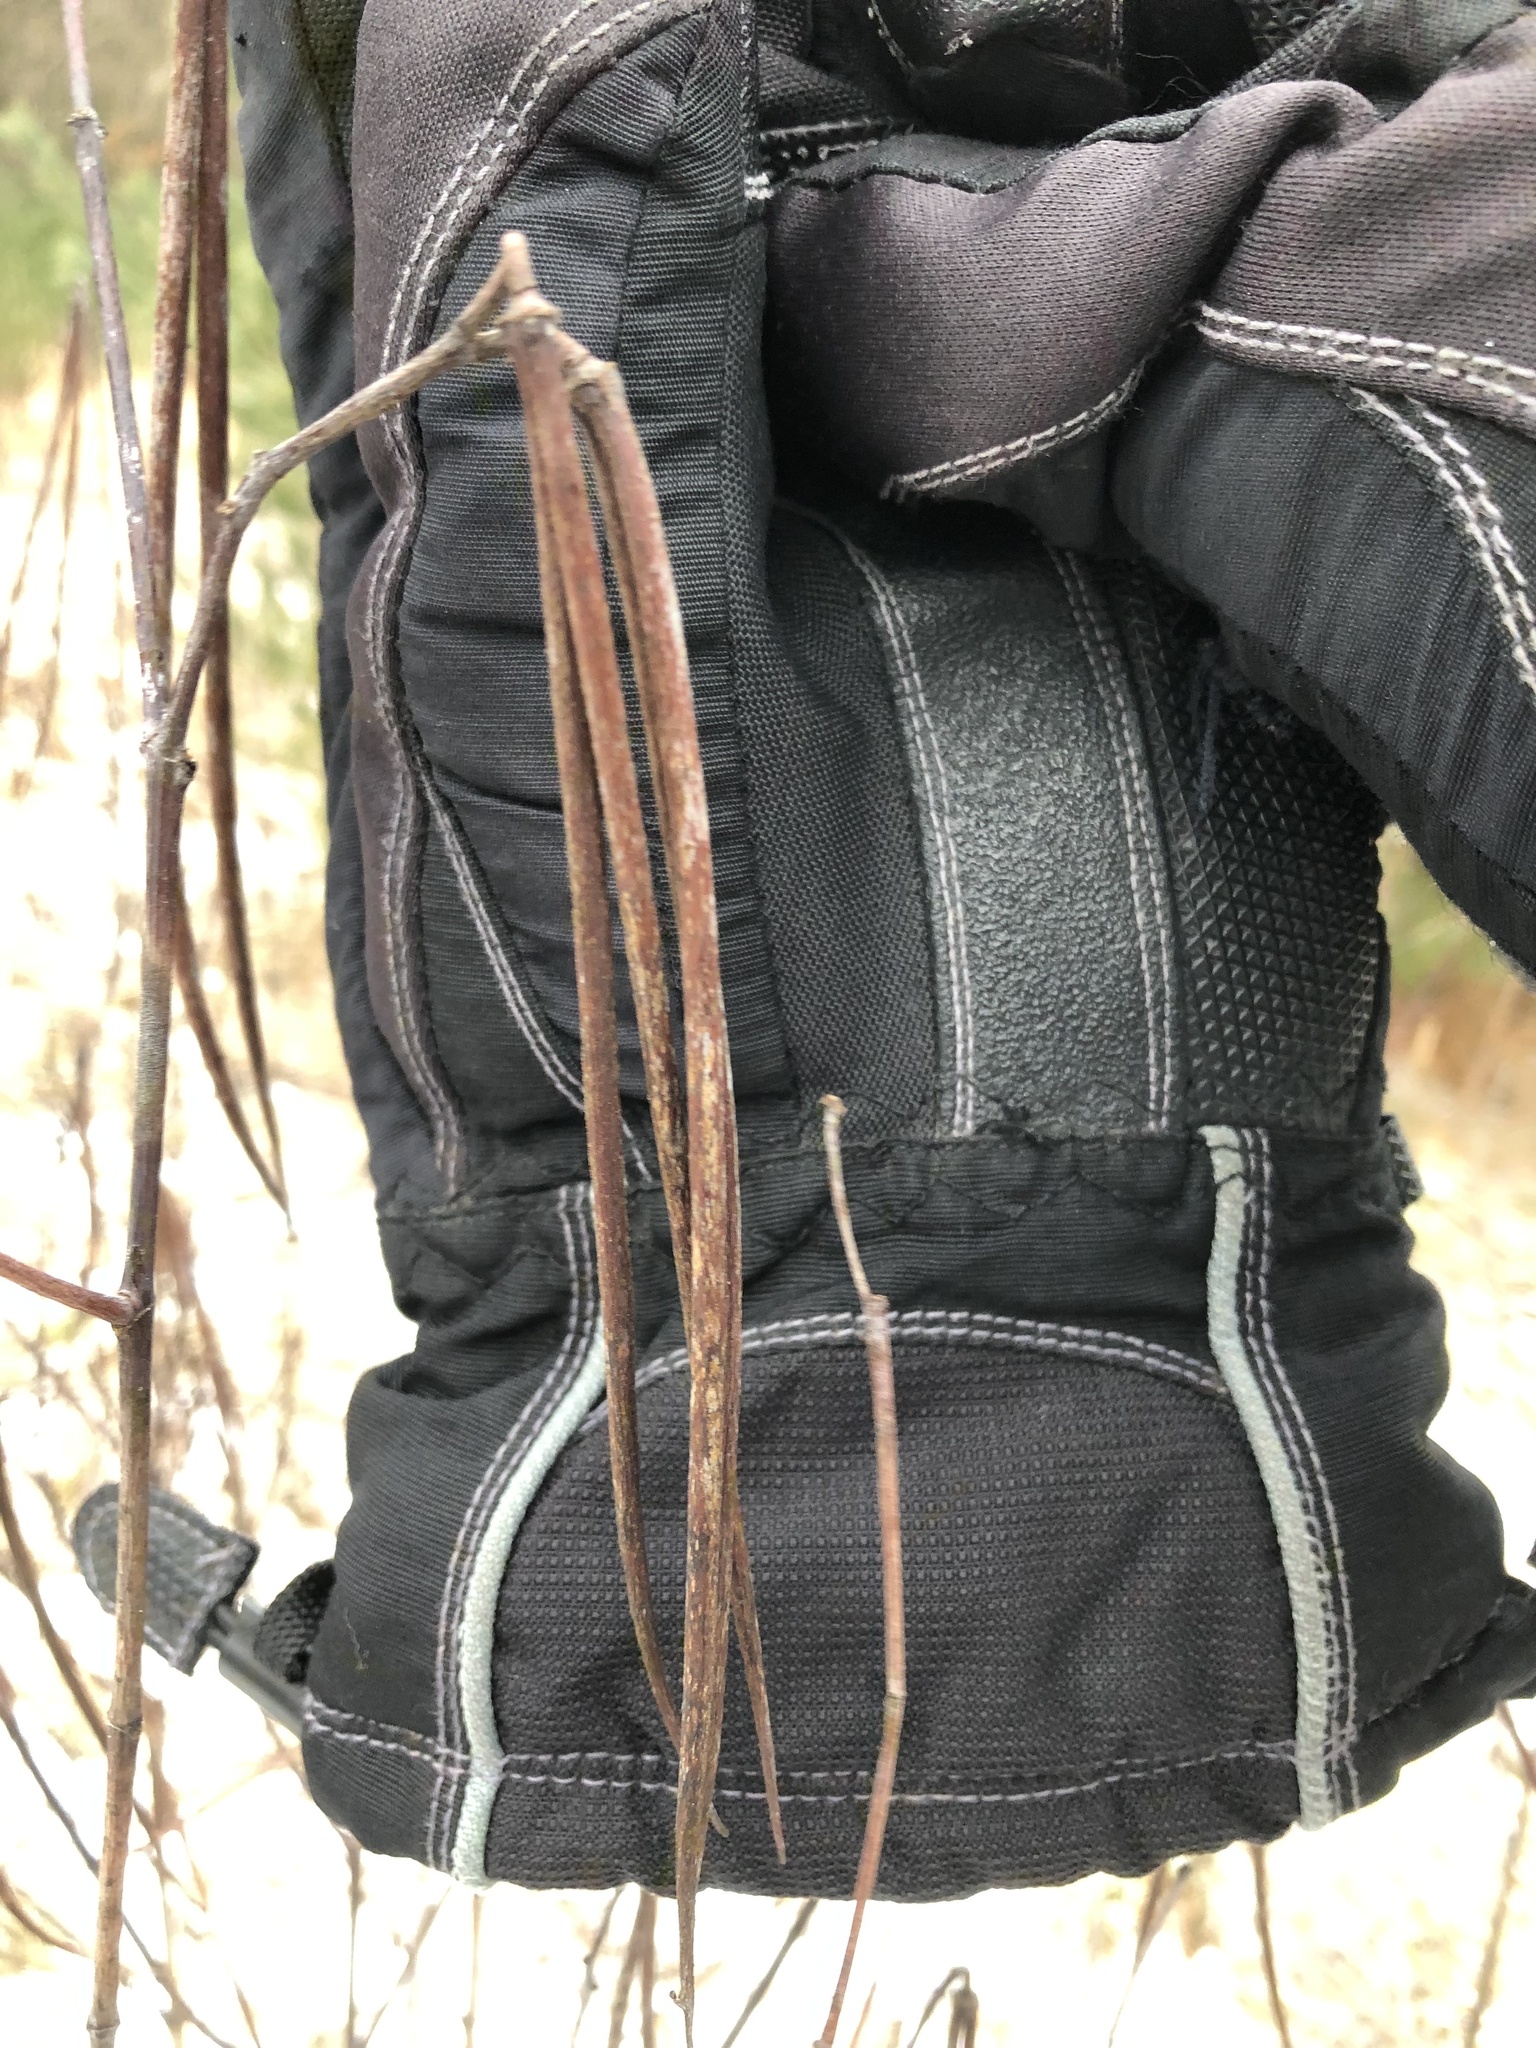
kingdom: Plantae
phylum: Tracheophyta
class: Magnoliopsida
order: Gentianales
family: Apocynaceae
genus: Apocynum
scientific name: Apocynum cannabinum
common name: Hemp dogbane
